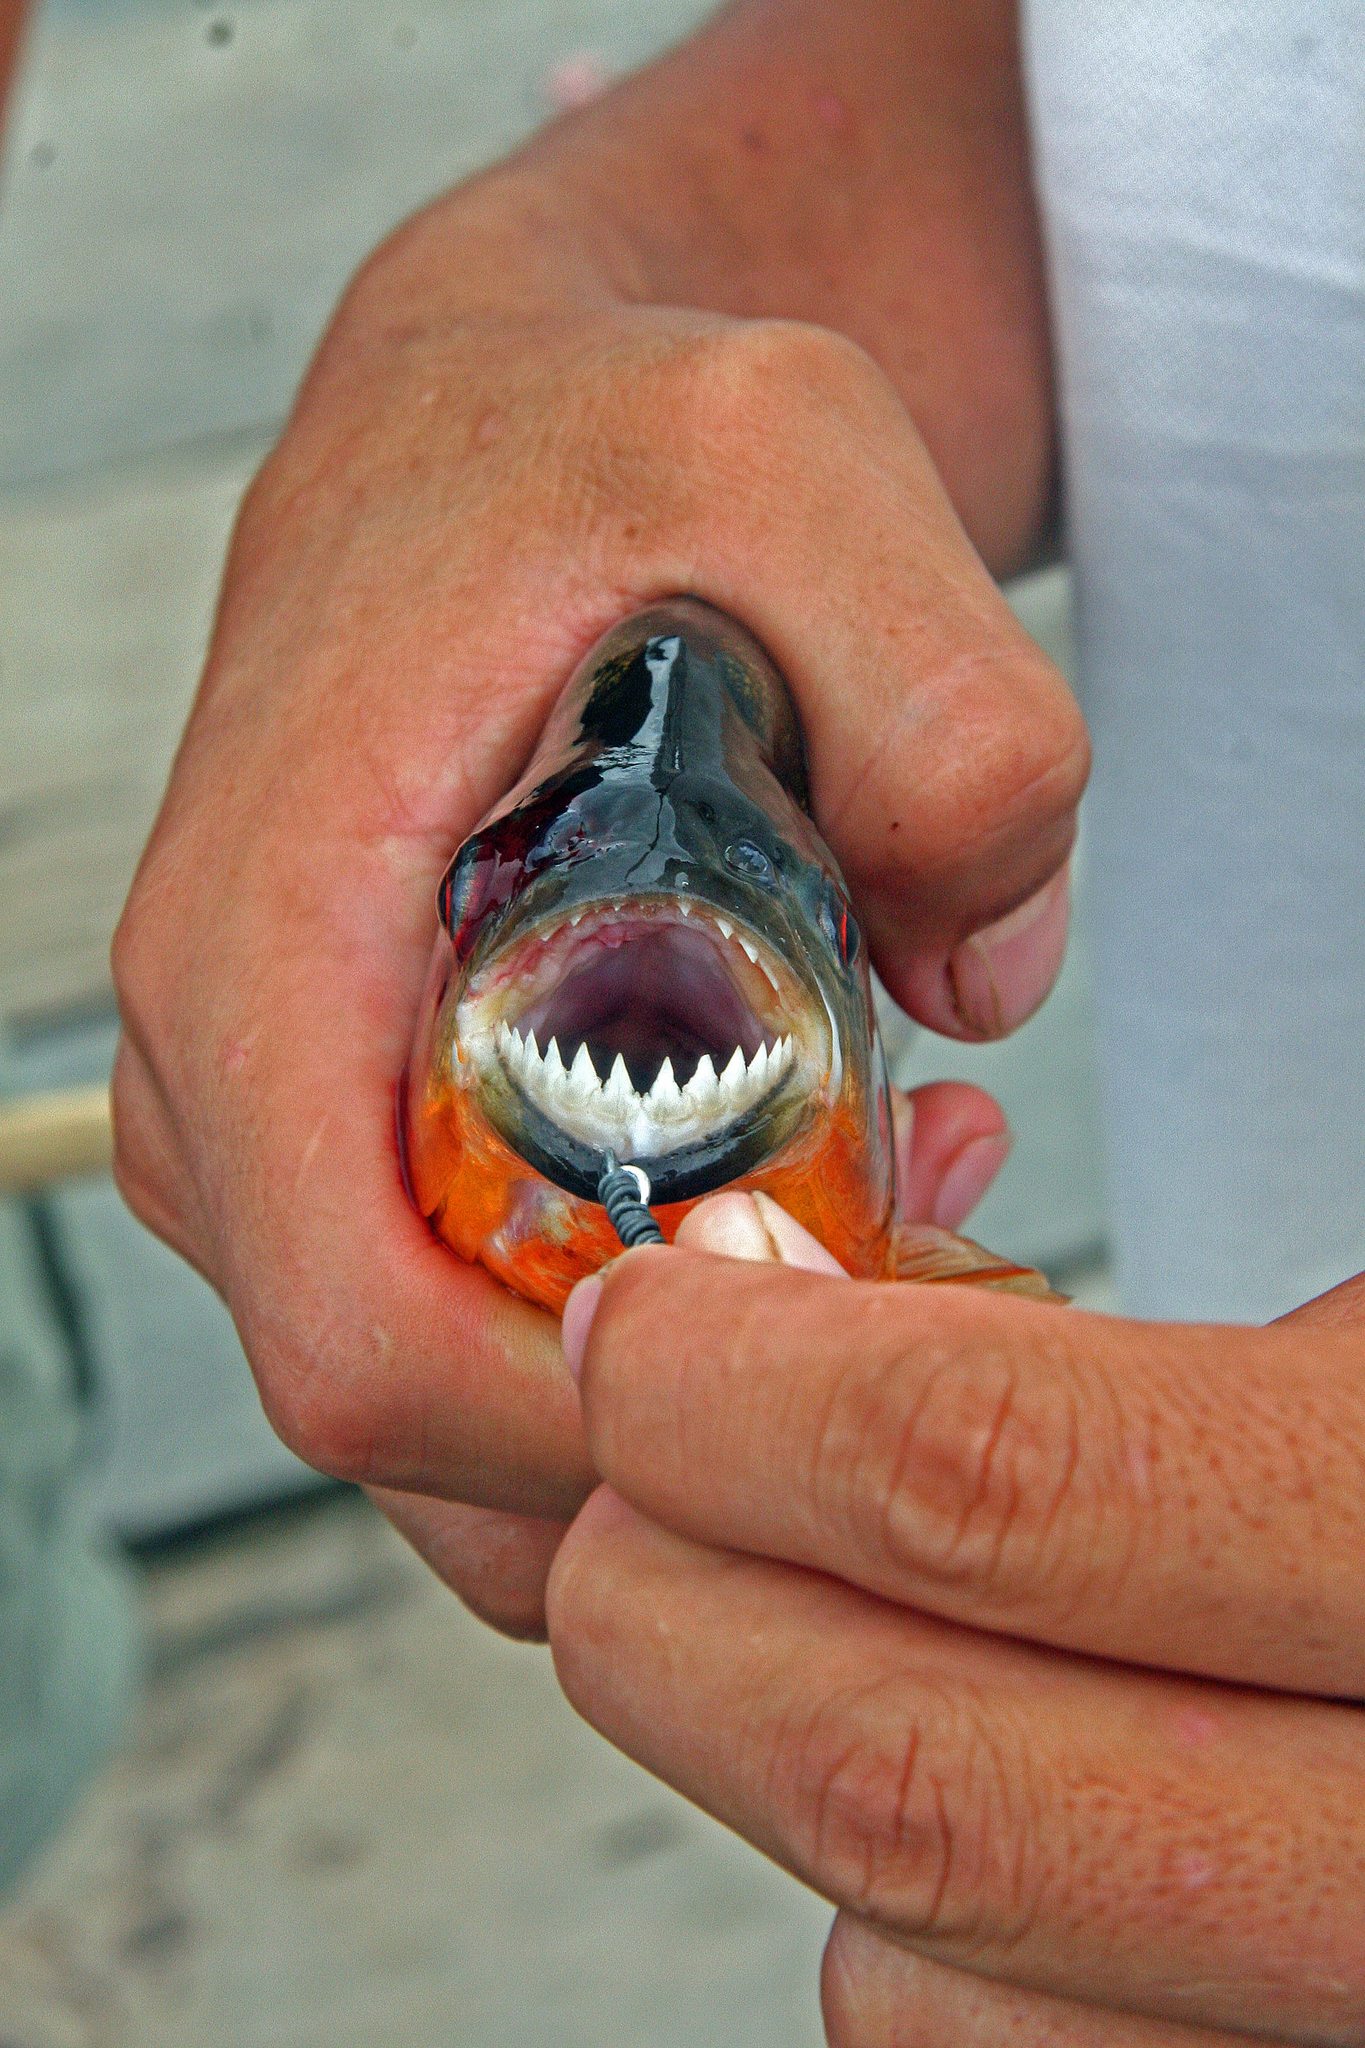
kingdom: Animalia
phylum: Chordata
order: Characiformes
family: Serrasalmidae
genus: Pygocentrus
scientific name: Pygocentrus nattereri
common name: Piranha
